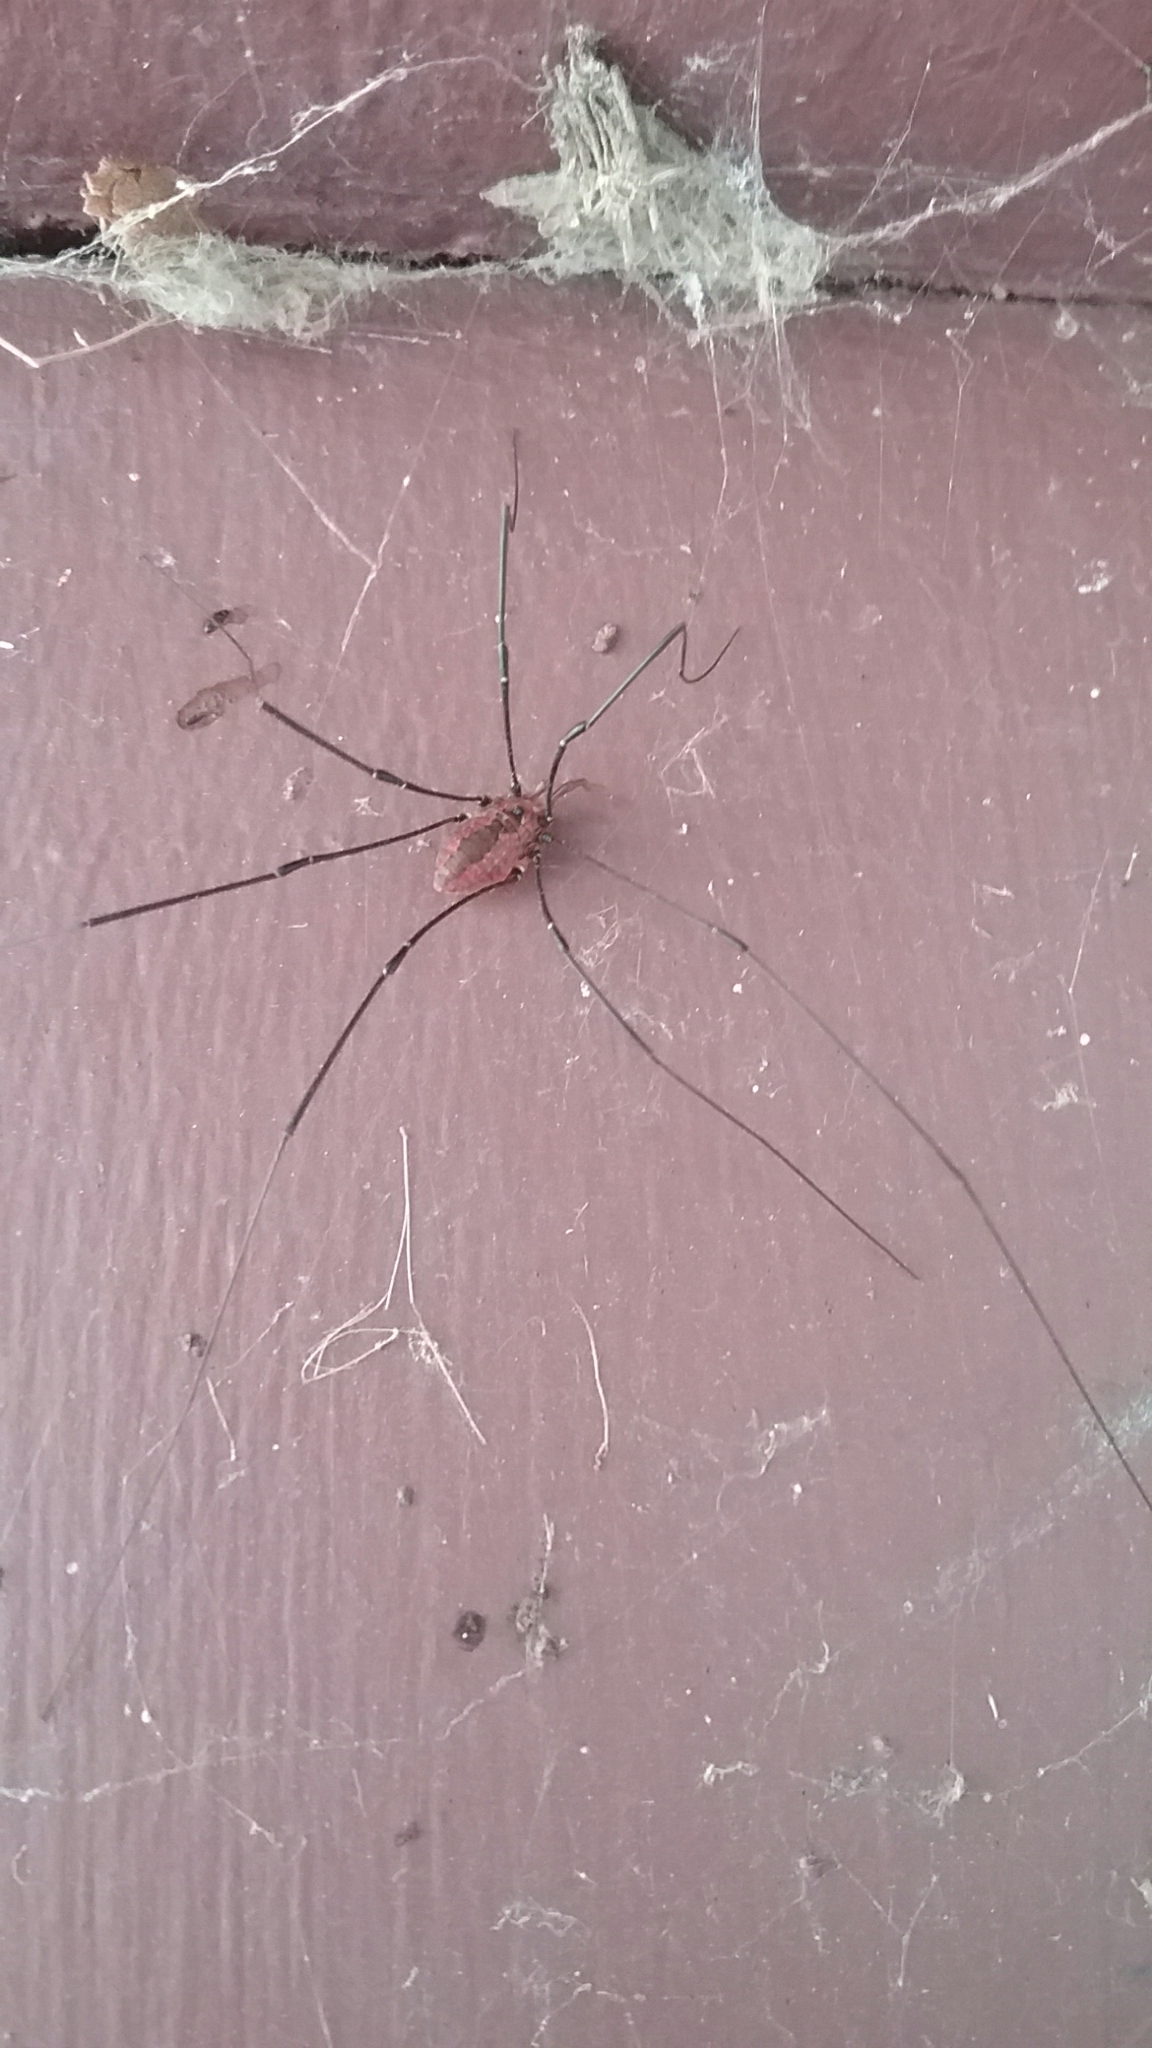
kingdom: Animalia
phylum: Arthropoda
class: Arachnida
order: Opiliones
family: Sclerosomatidae
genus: Leiobunum
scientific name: Leiobunum vittatum
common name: Eastern harvestman
